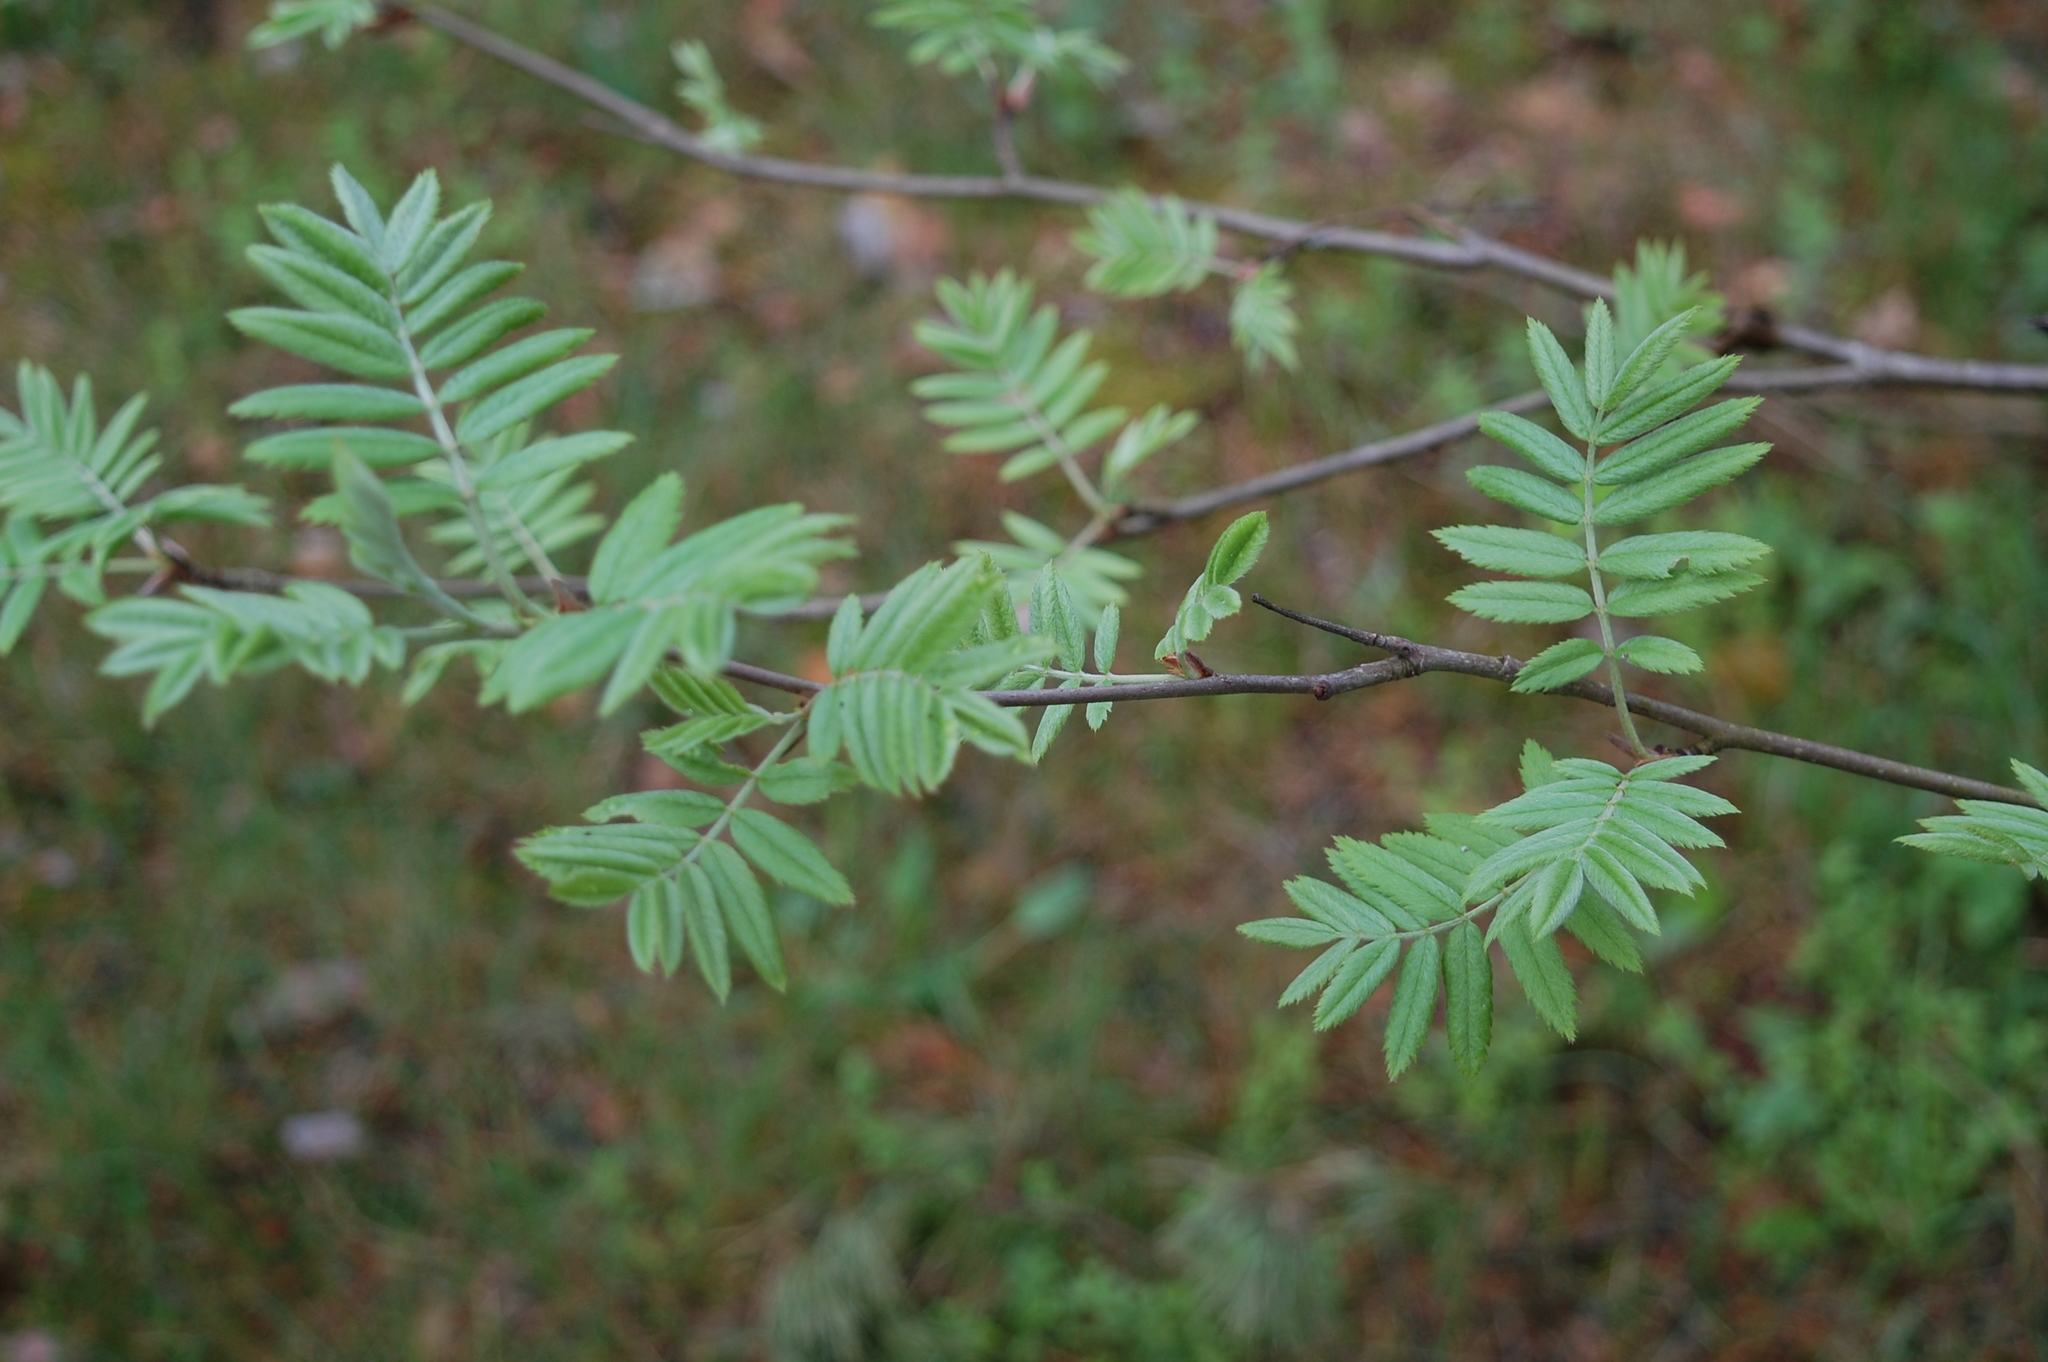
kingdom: Plantae
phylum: Tracheophyta
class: Magnoliopsida
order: Rosales
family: Rosaceae
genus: Sorbus
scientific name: Sorbus aucuparia
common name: Rowan
